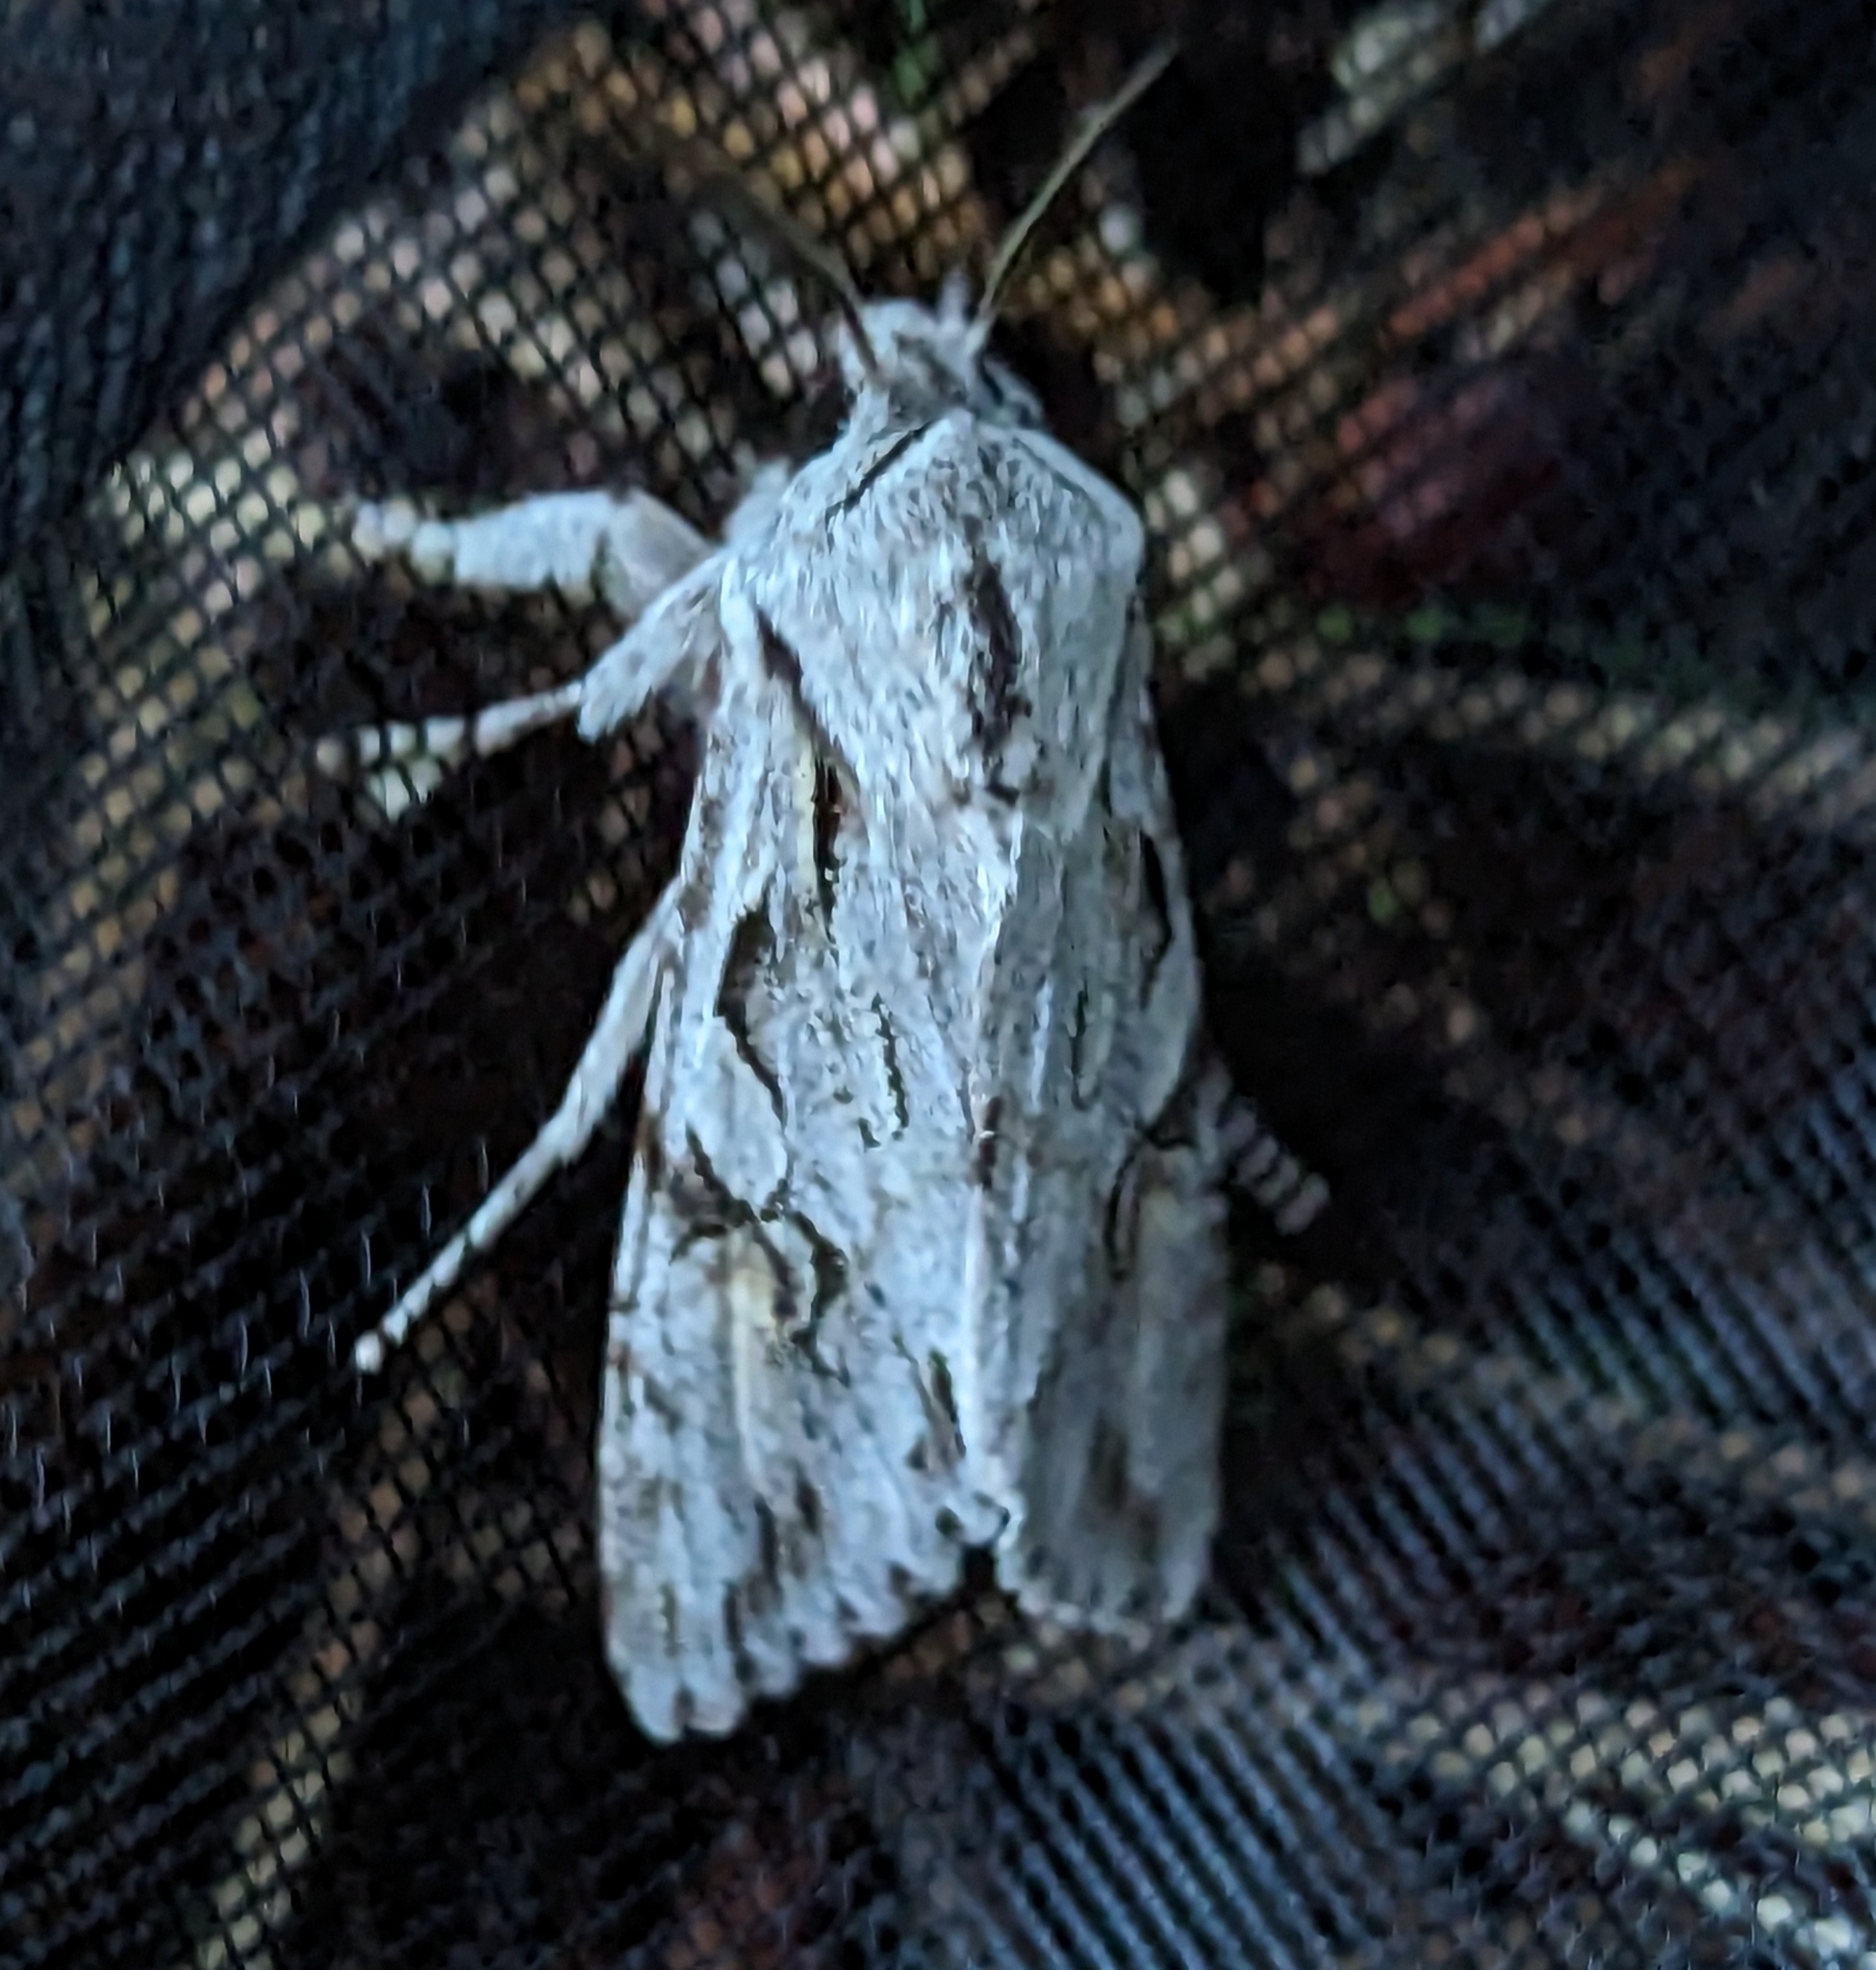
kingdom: Animalia
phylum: Arthropoda
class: Insecta
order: Lepidoptera
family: Noctuidae
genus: Egira
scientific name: Egira crucialis
